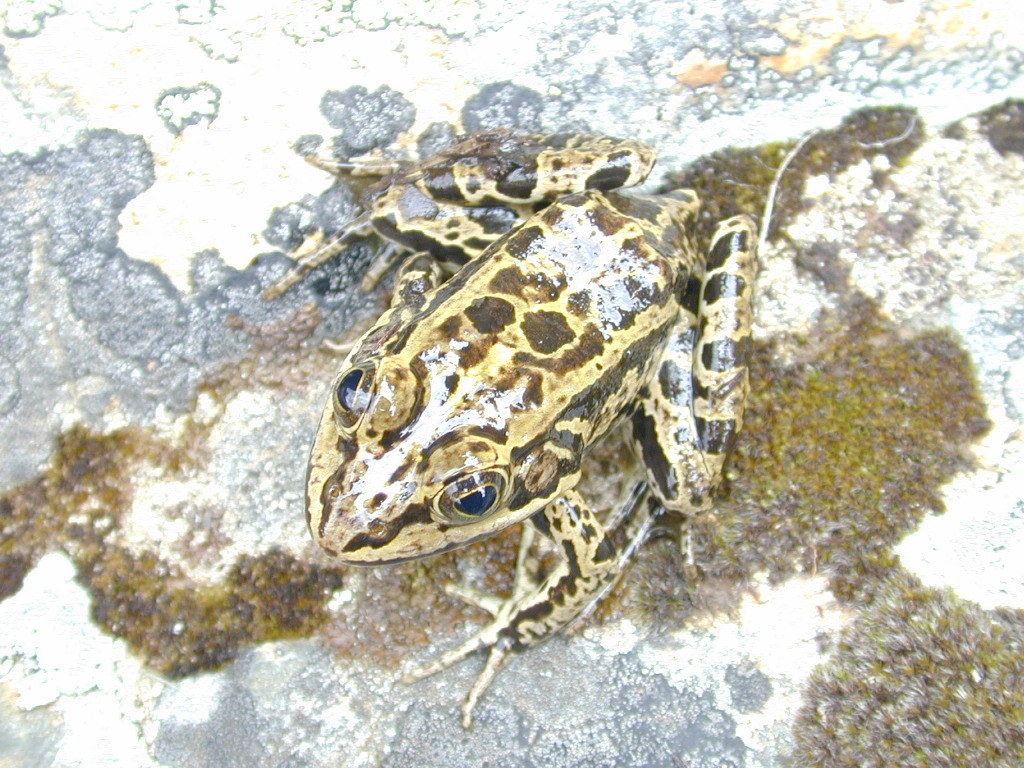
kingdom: Animalia
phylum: Chordata
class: Amphibia
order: Anura
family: Ranidae
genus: Pelophylax
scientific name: Pelophylax bergeri
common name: Italian pool frog
